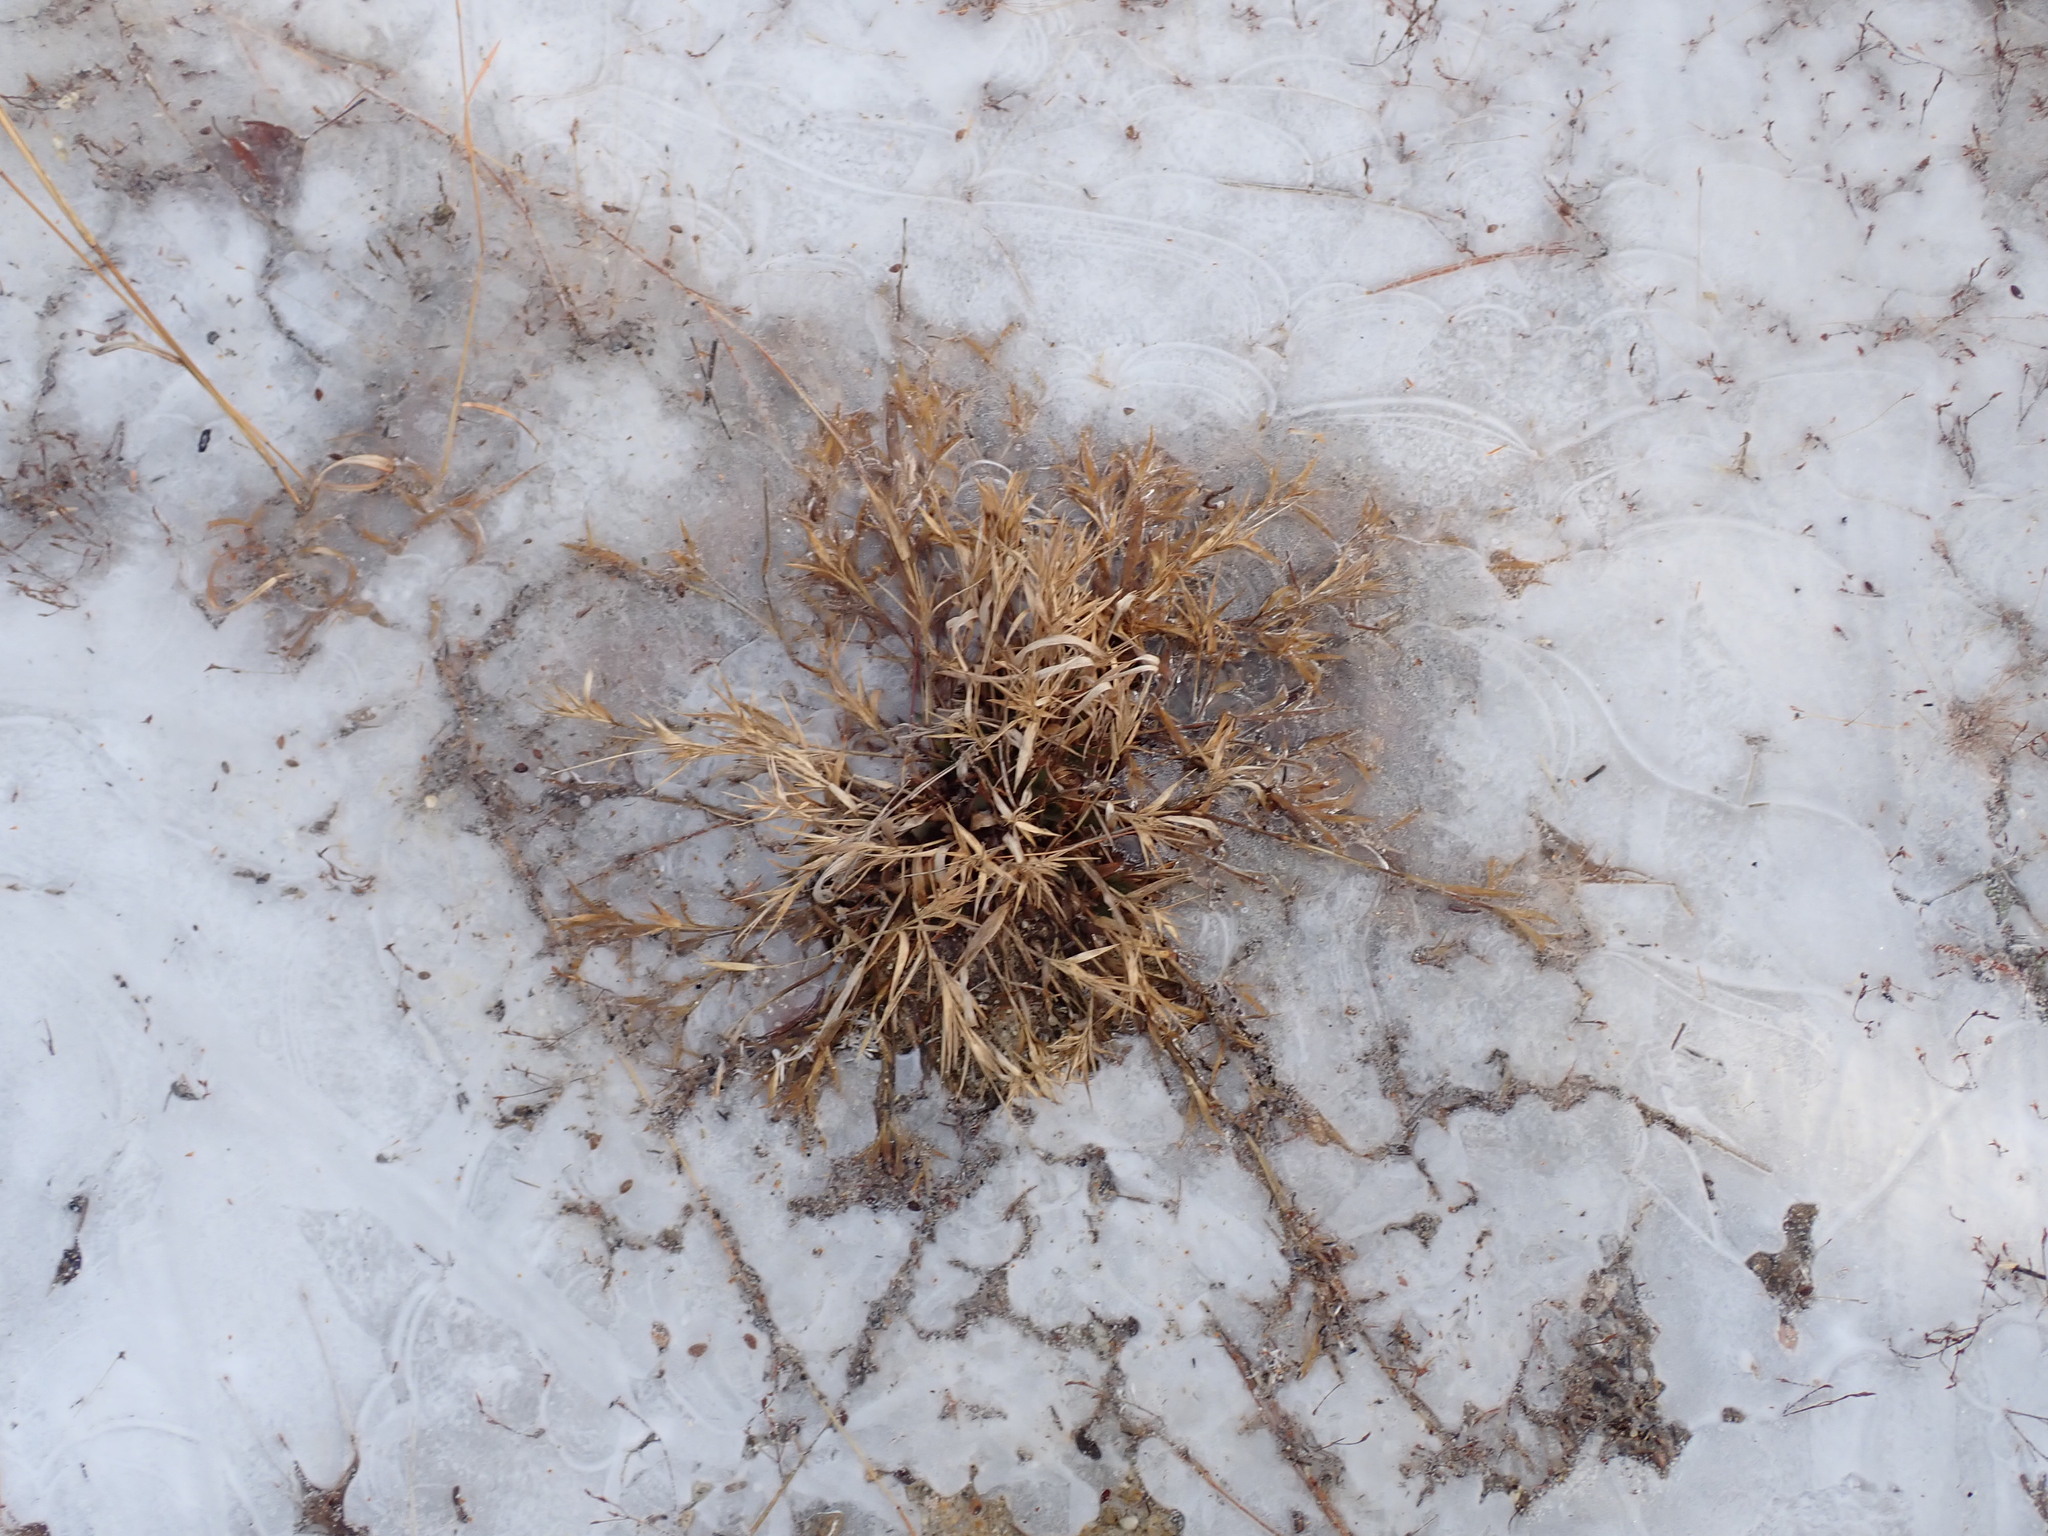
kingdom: Plantae
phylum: Tracheophyta
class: Liliopsida
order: Poales
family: Poaceae
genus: Dichanthelium
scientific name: Dichanthelium
